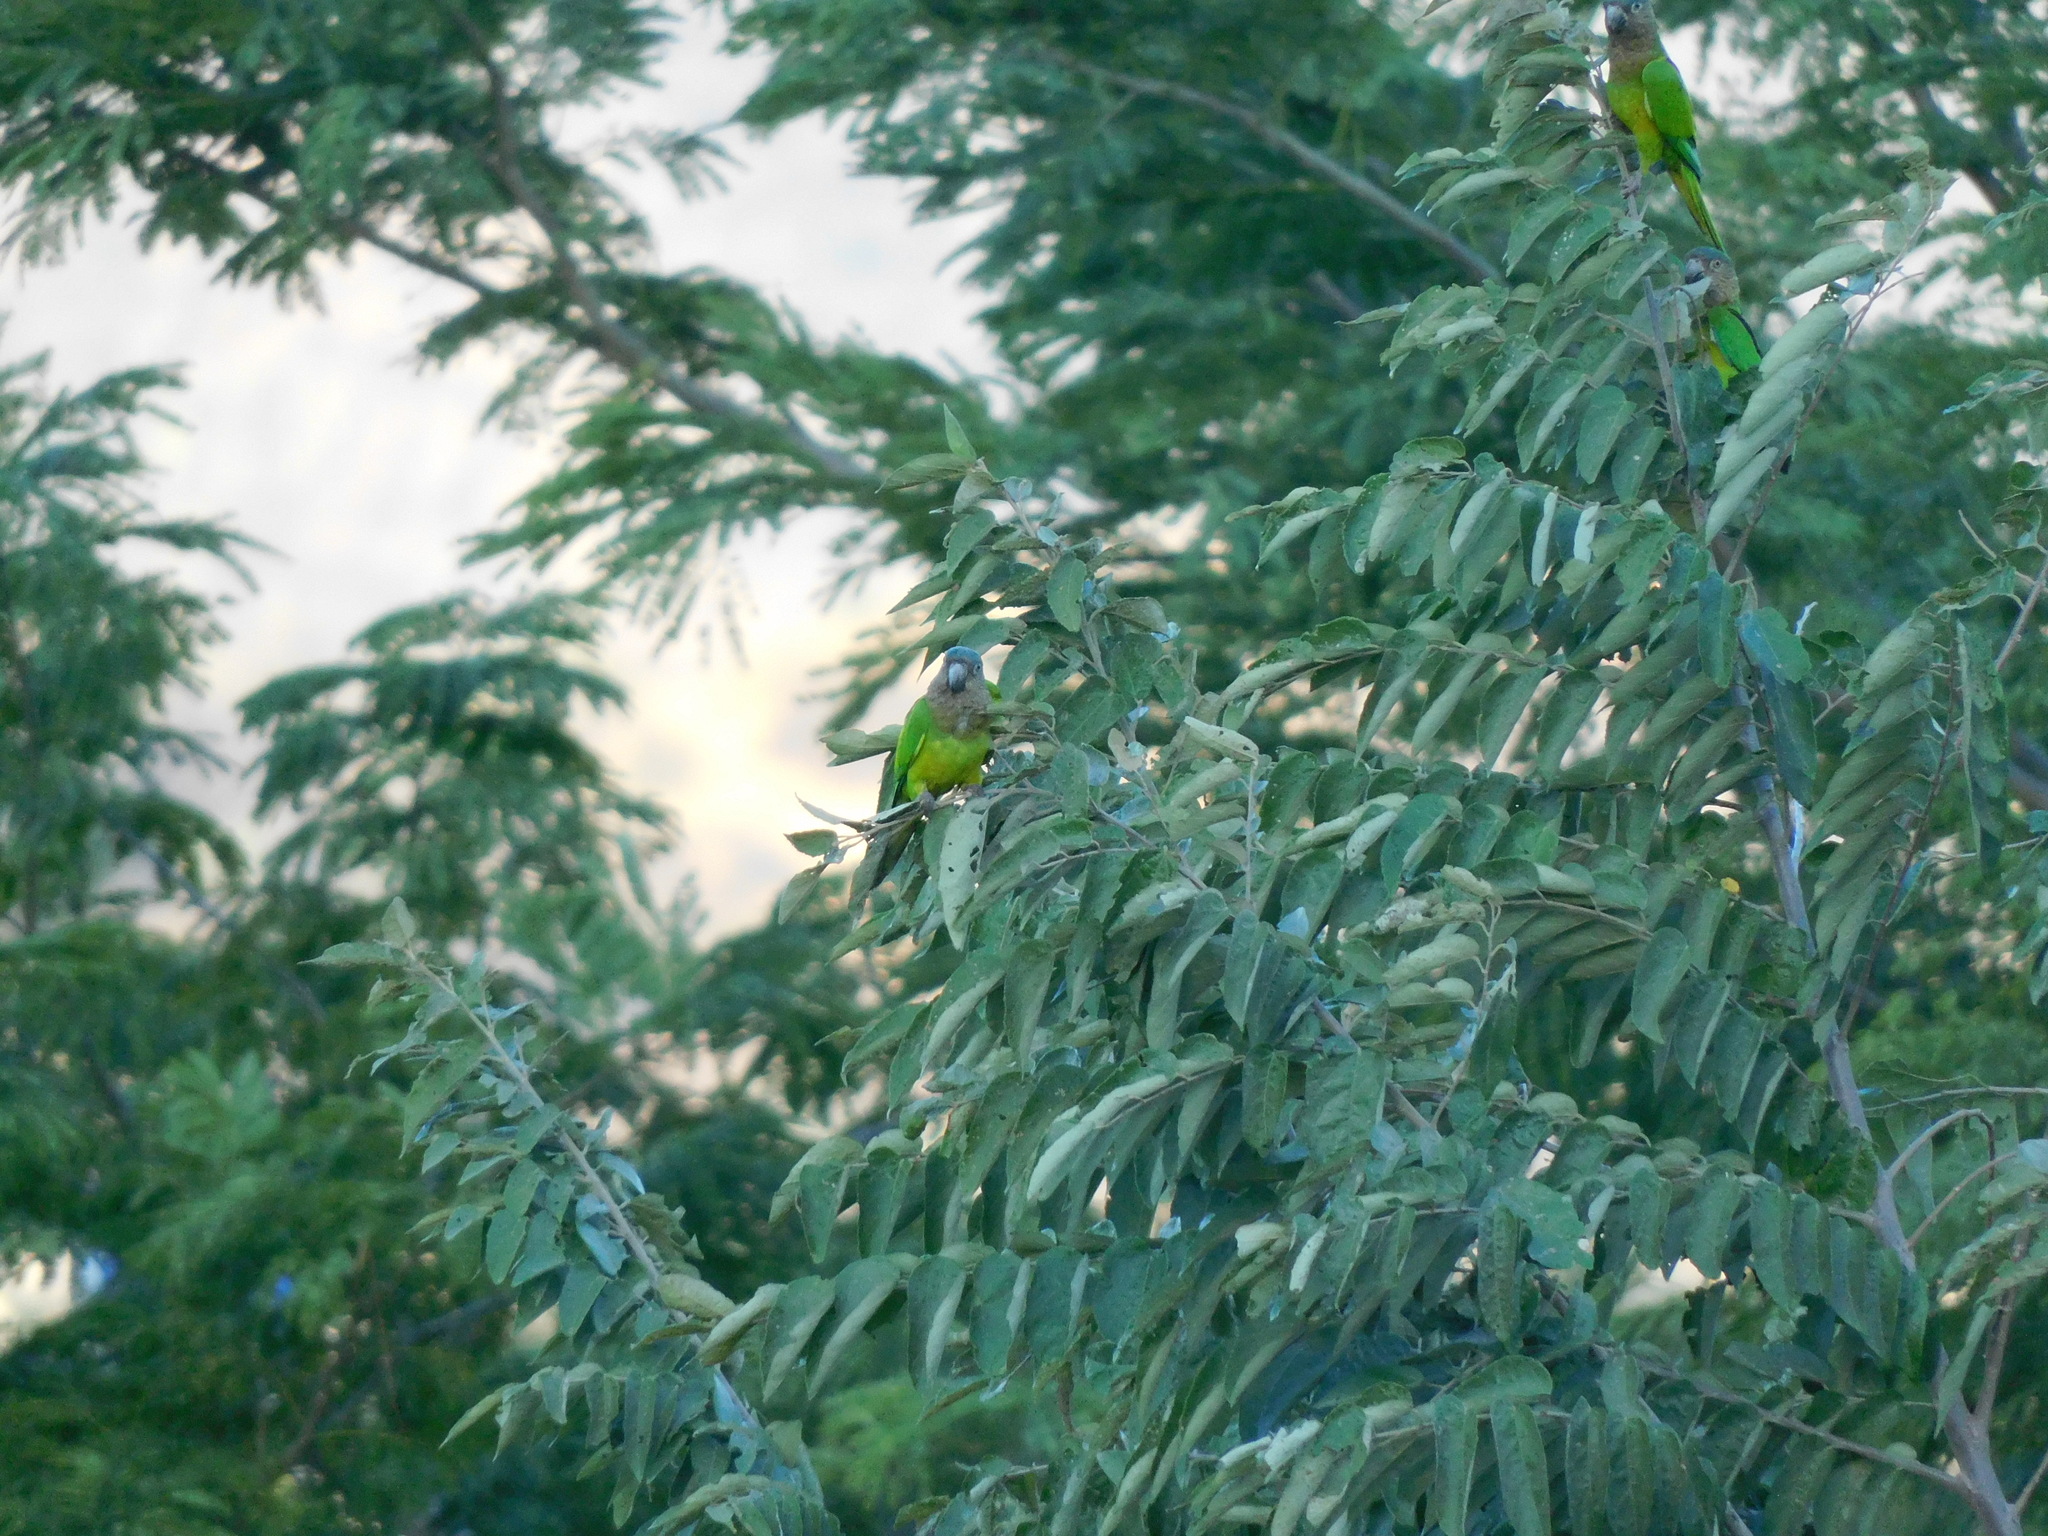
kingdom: Animalia
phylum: Chordata
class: Aves
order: Psittaciformes
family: Psittacidae
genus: Aratinga
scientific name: Aratinga pertinax
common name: Brown-throated parakeet
